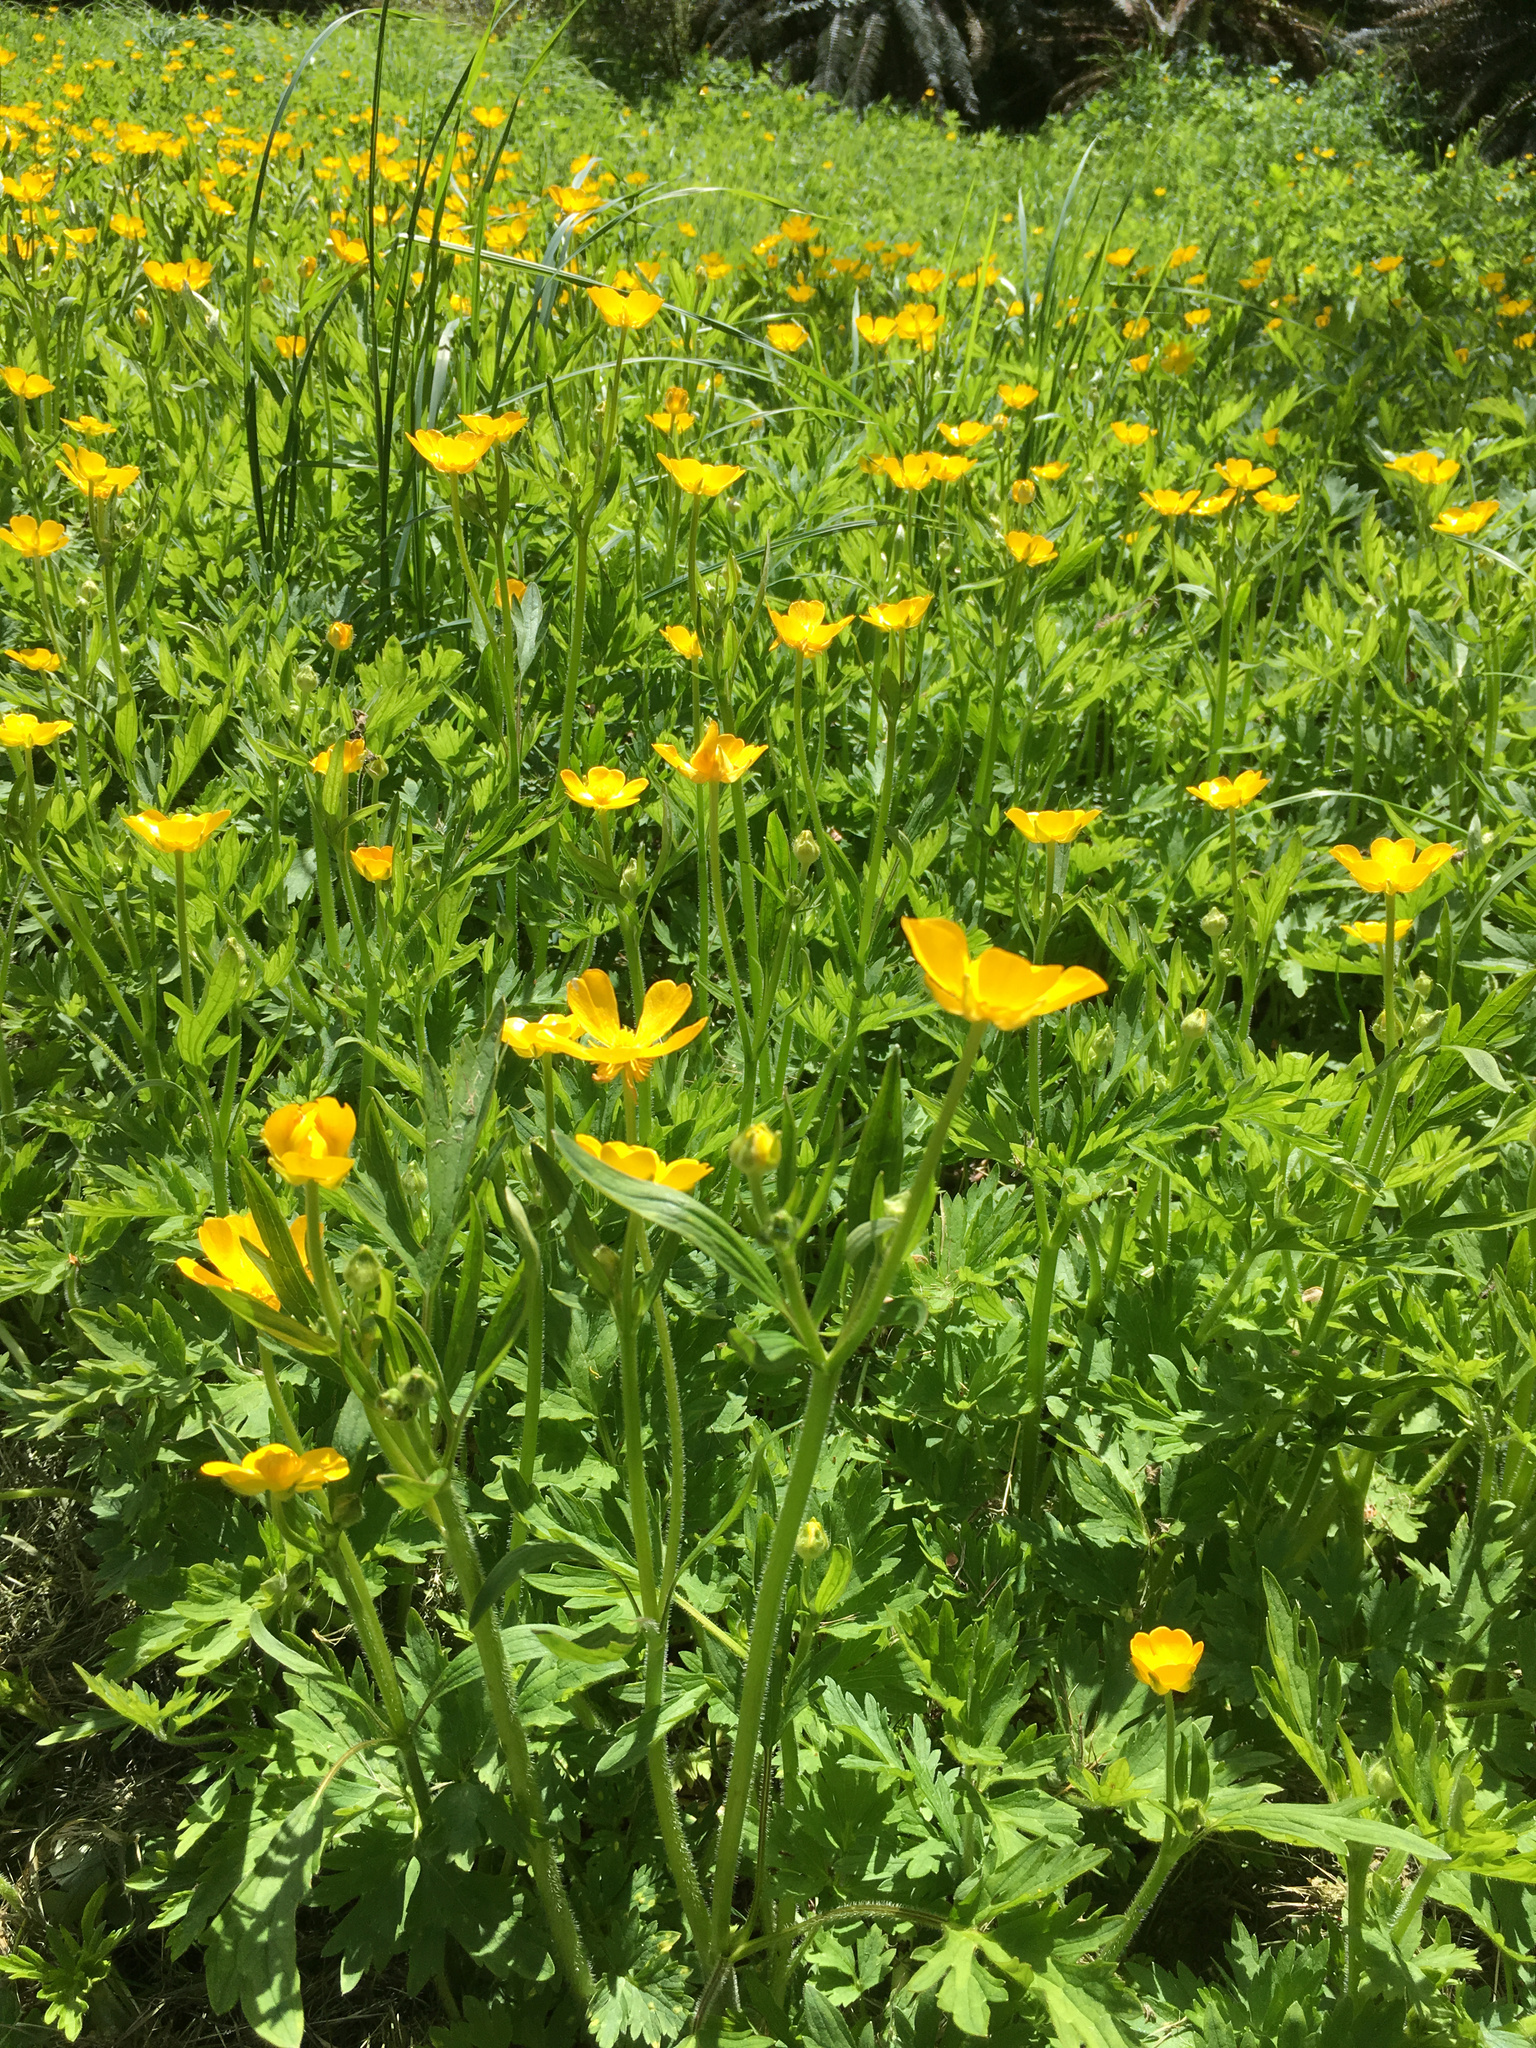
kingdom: Plantae
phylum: Tracheophyta
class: Magnoliopsida
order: Ranunculales
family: Ranunculaceae
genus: Ranunculus
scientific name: Ranunculus repens
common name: Creeping buttercup
